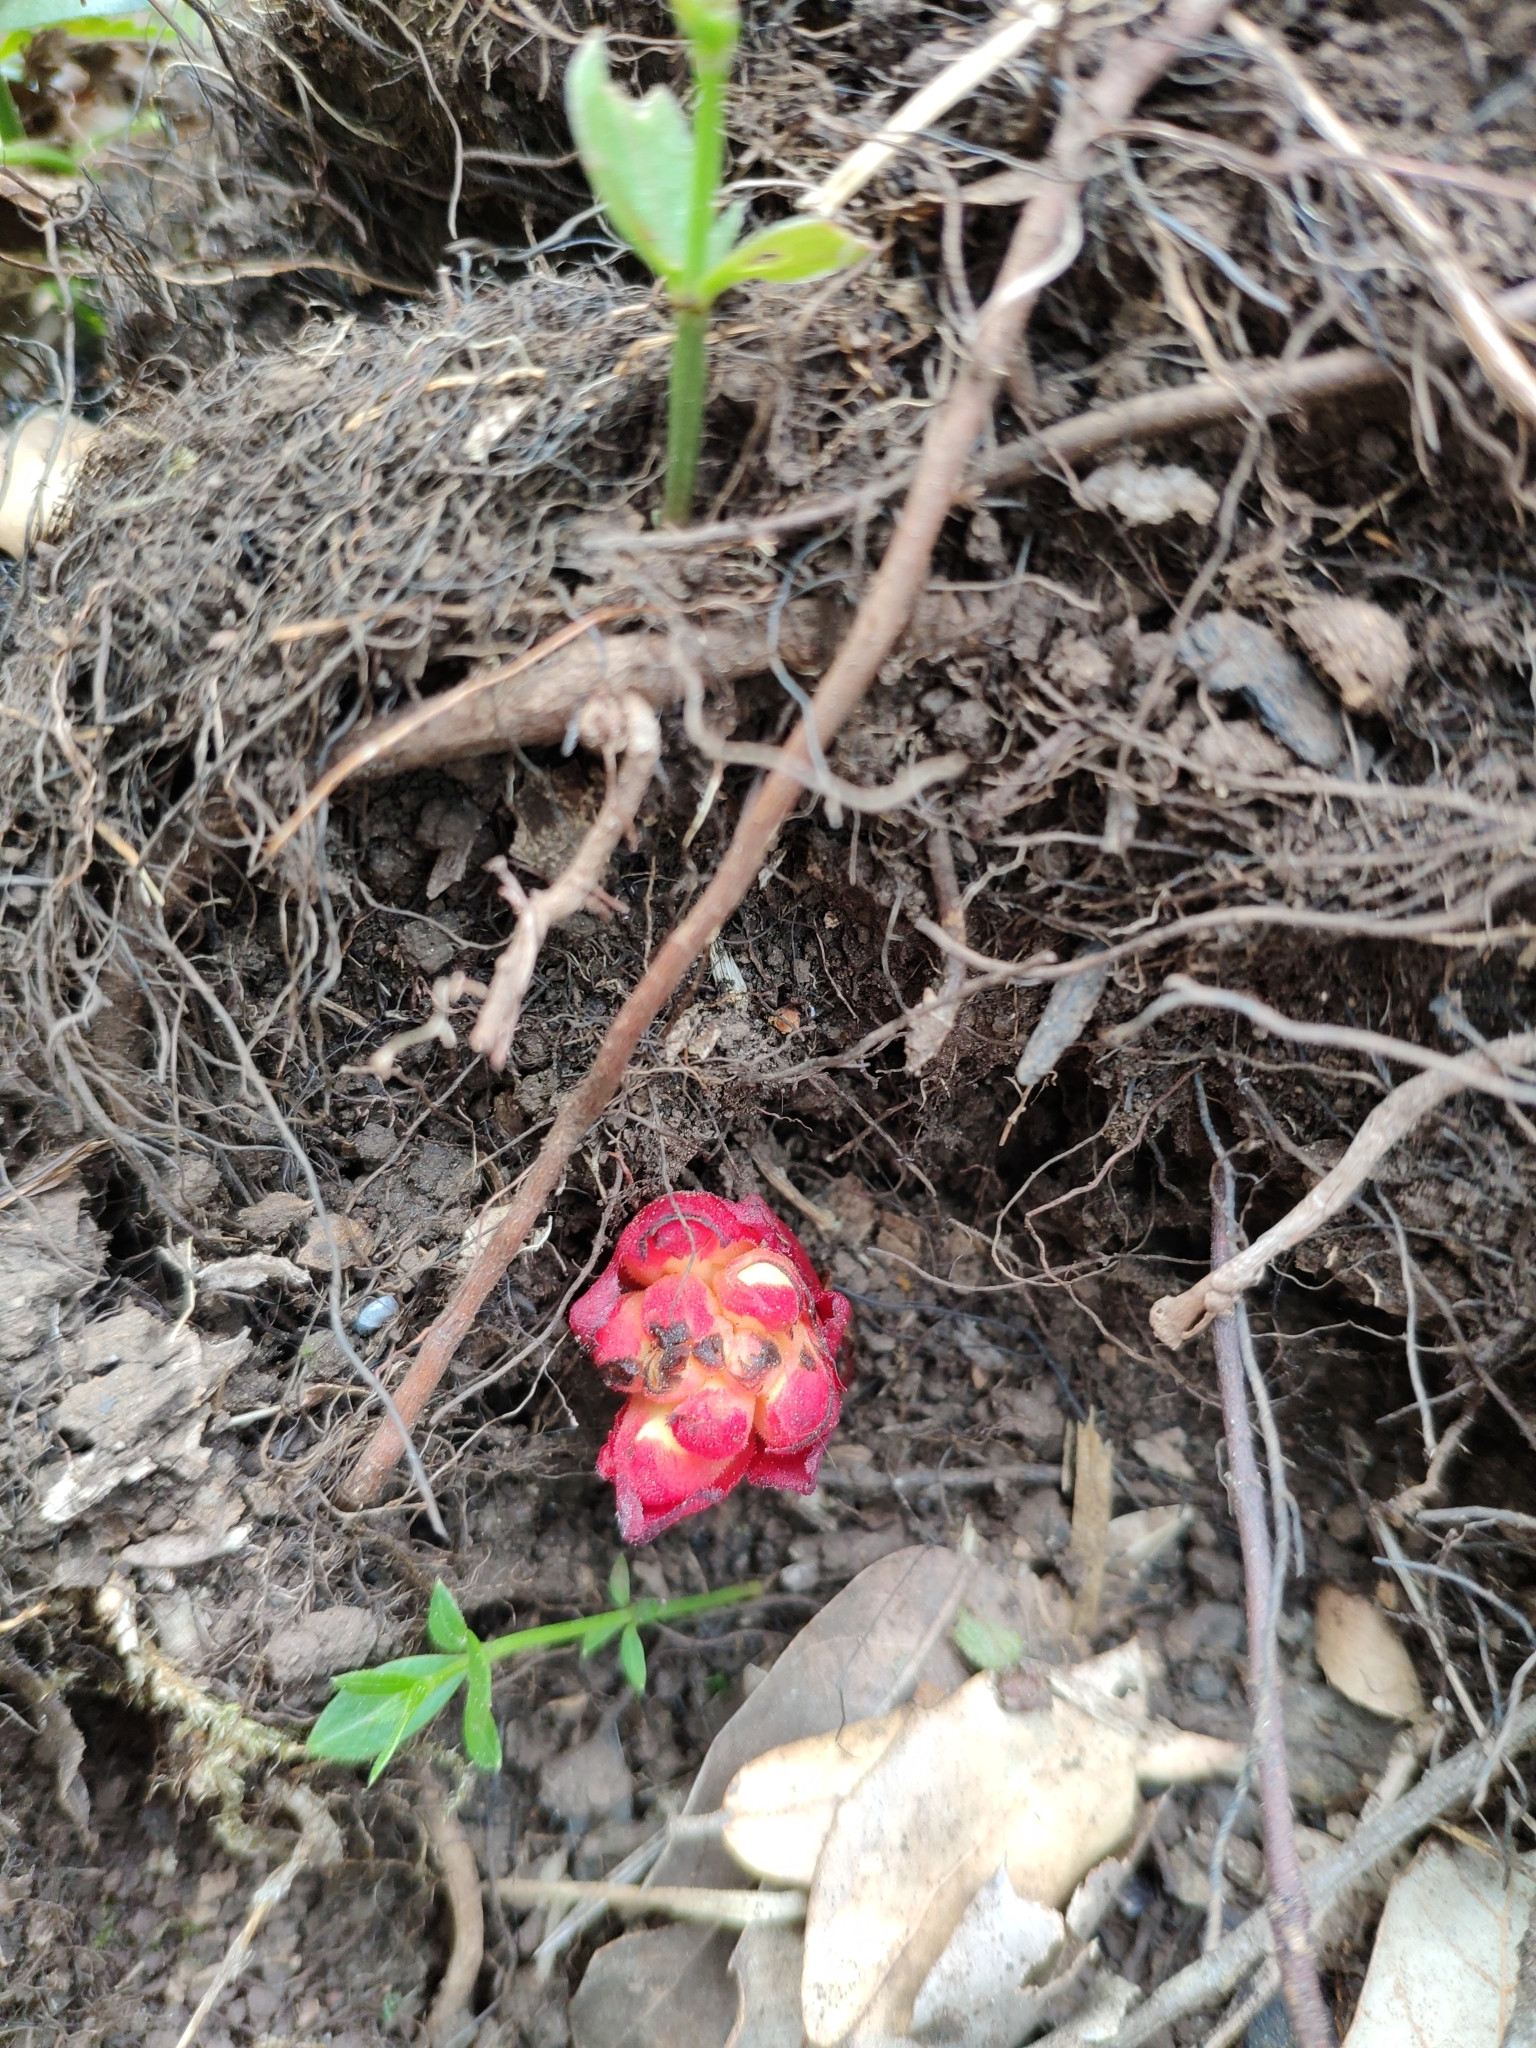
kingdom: Plantae
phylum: Tracheophyta
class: Magnoliopsida
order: Malvales
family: Cytinaceae
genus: Cytinus
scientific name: Cytinus hypocistis
